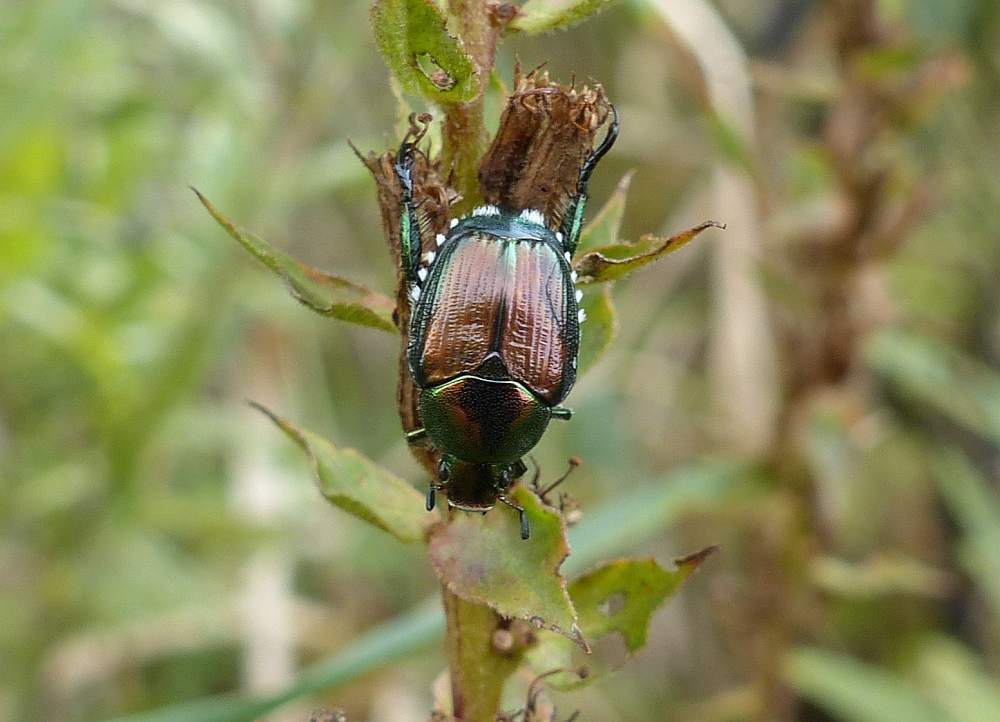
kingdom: Animalia
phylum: Arthropoda
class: Insecta
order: Coleoptera
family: Scarabaeidae
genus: Popillia
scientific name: Popillia japonica
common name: Japanese beetle
